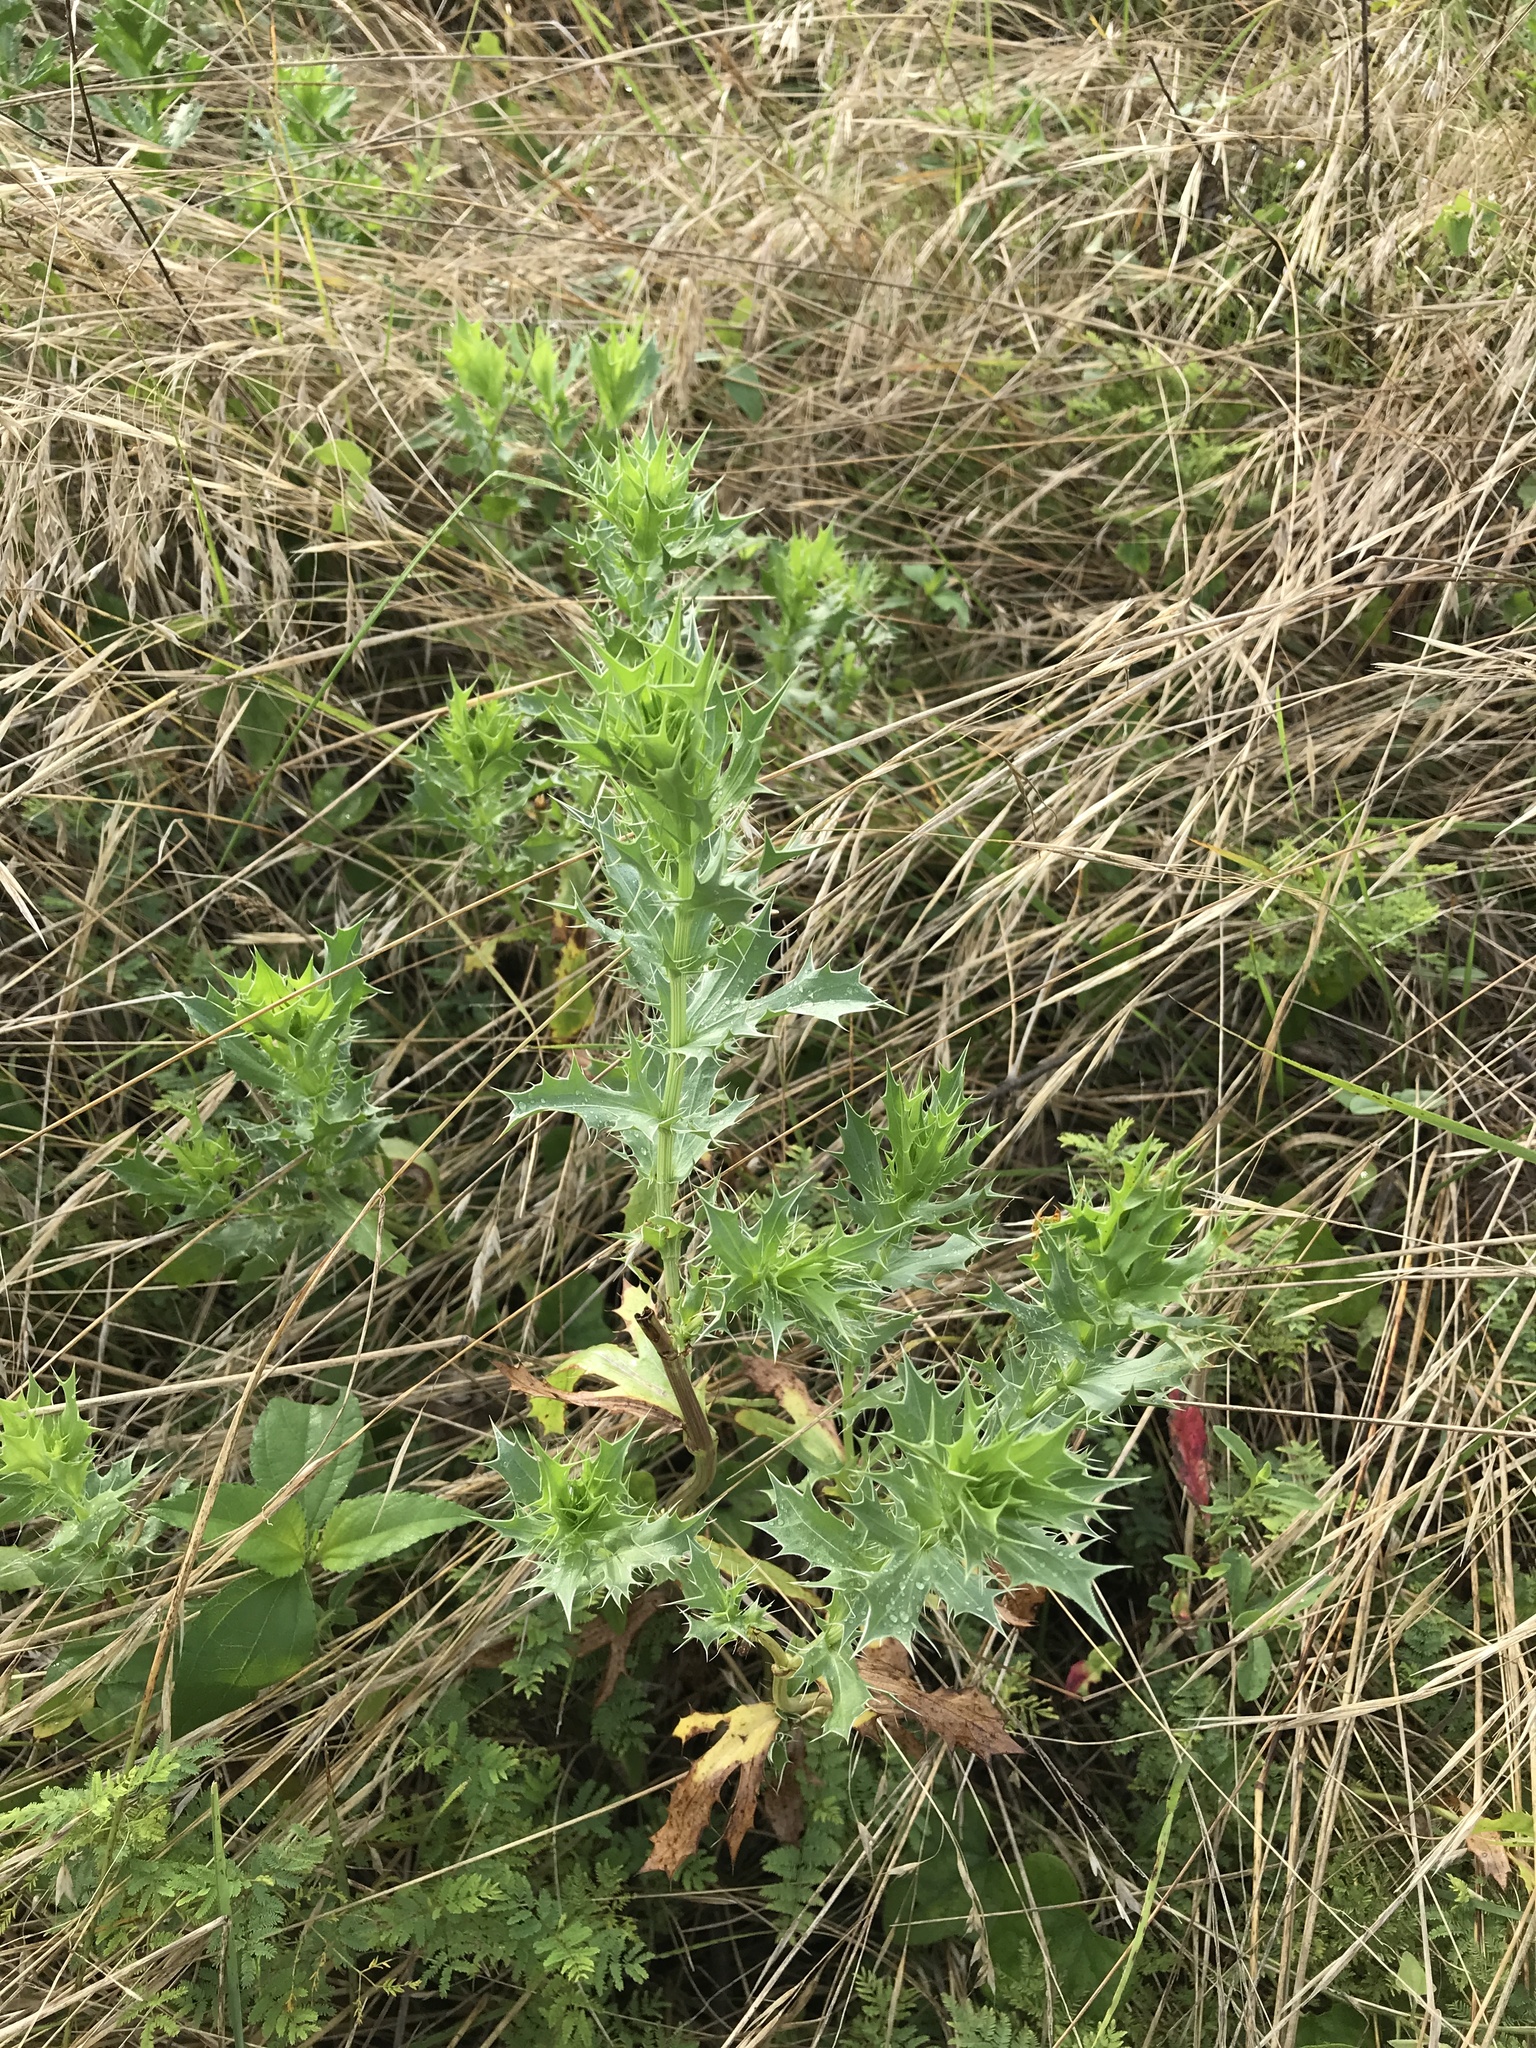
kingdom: Plantae
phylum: Tracheophyta
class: Magnoliopsida
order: Apiales
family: Apiaceae
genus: Eryngium
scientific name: Eryngium leavenworthii
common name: Leavenworth's eryngo
